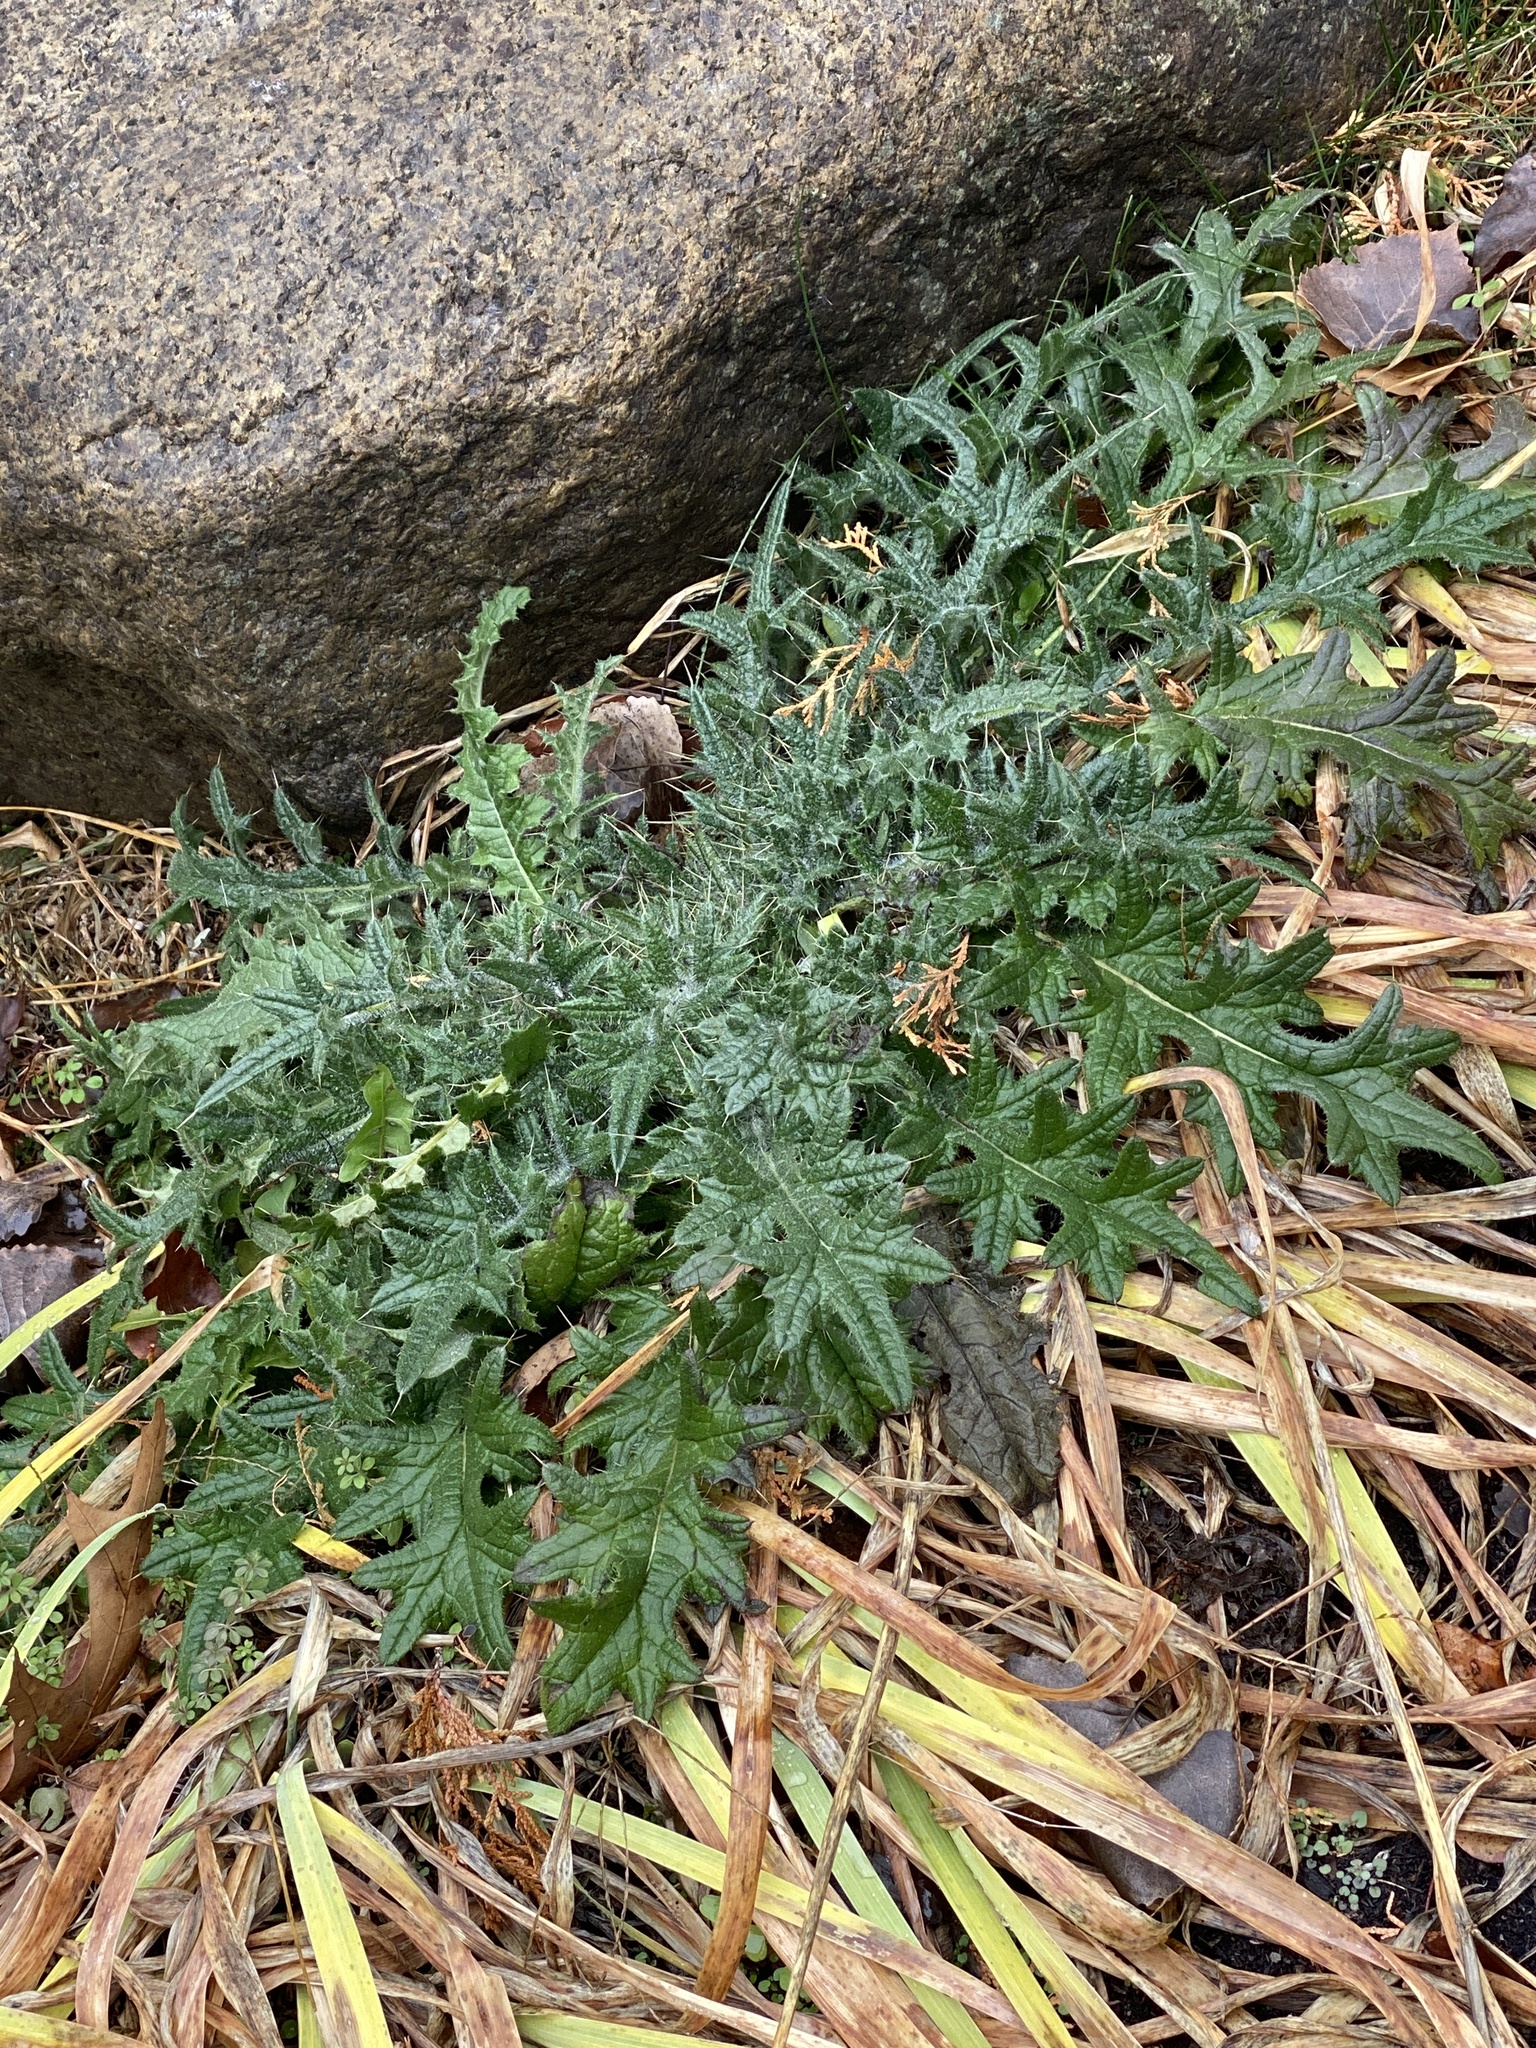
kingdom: Plantae
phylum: Tracheophyta
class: Magnoliopsida
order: Asterales
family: Asteraceae
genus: Cirsium
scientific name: Cirsium vulgare
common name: Bull thistle
